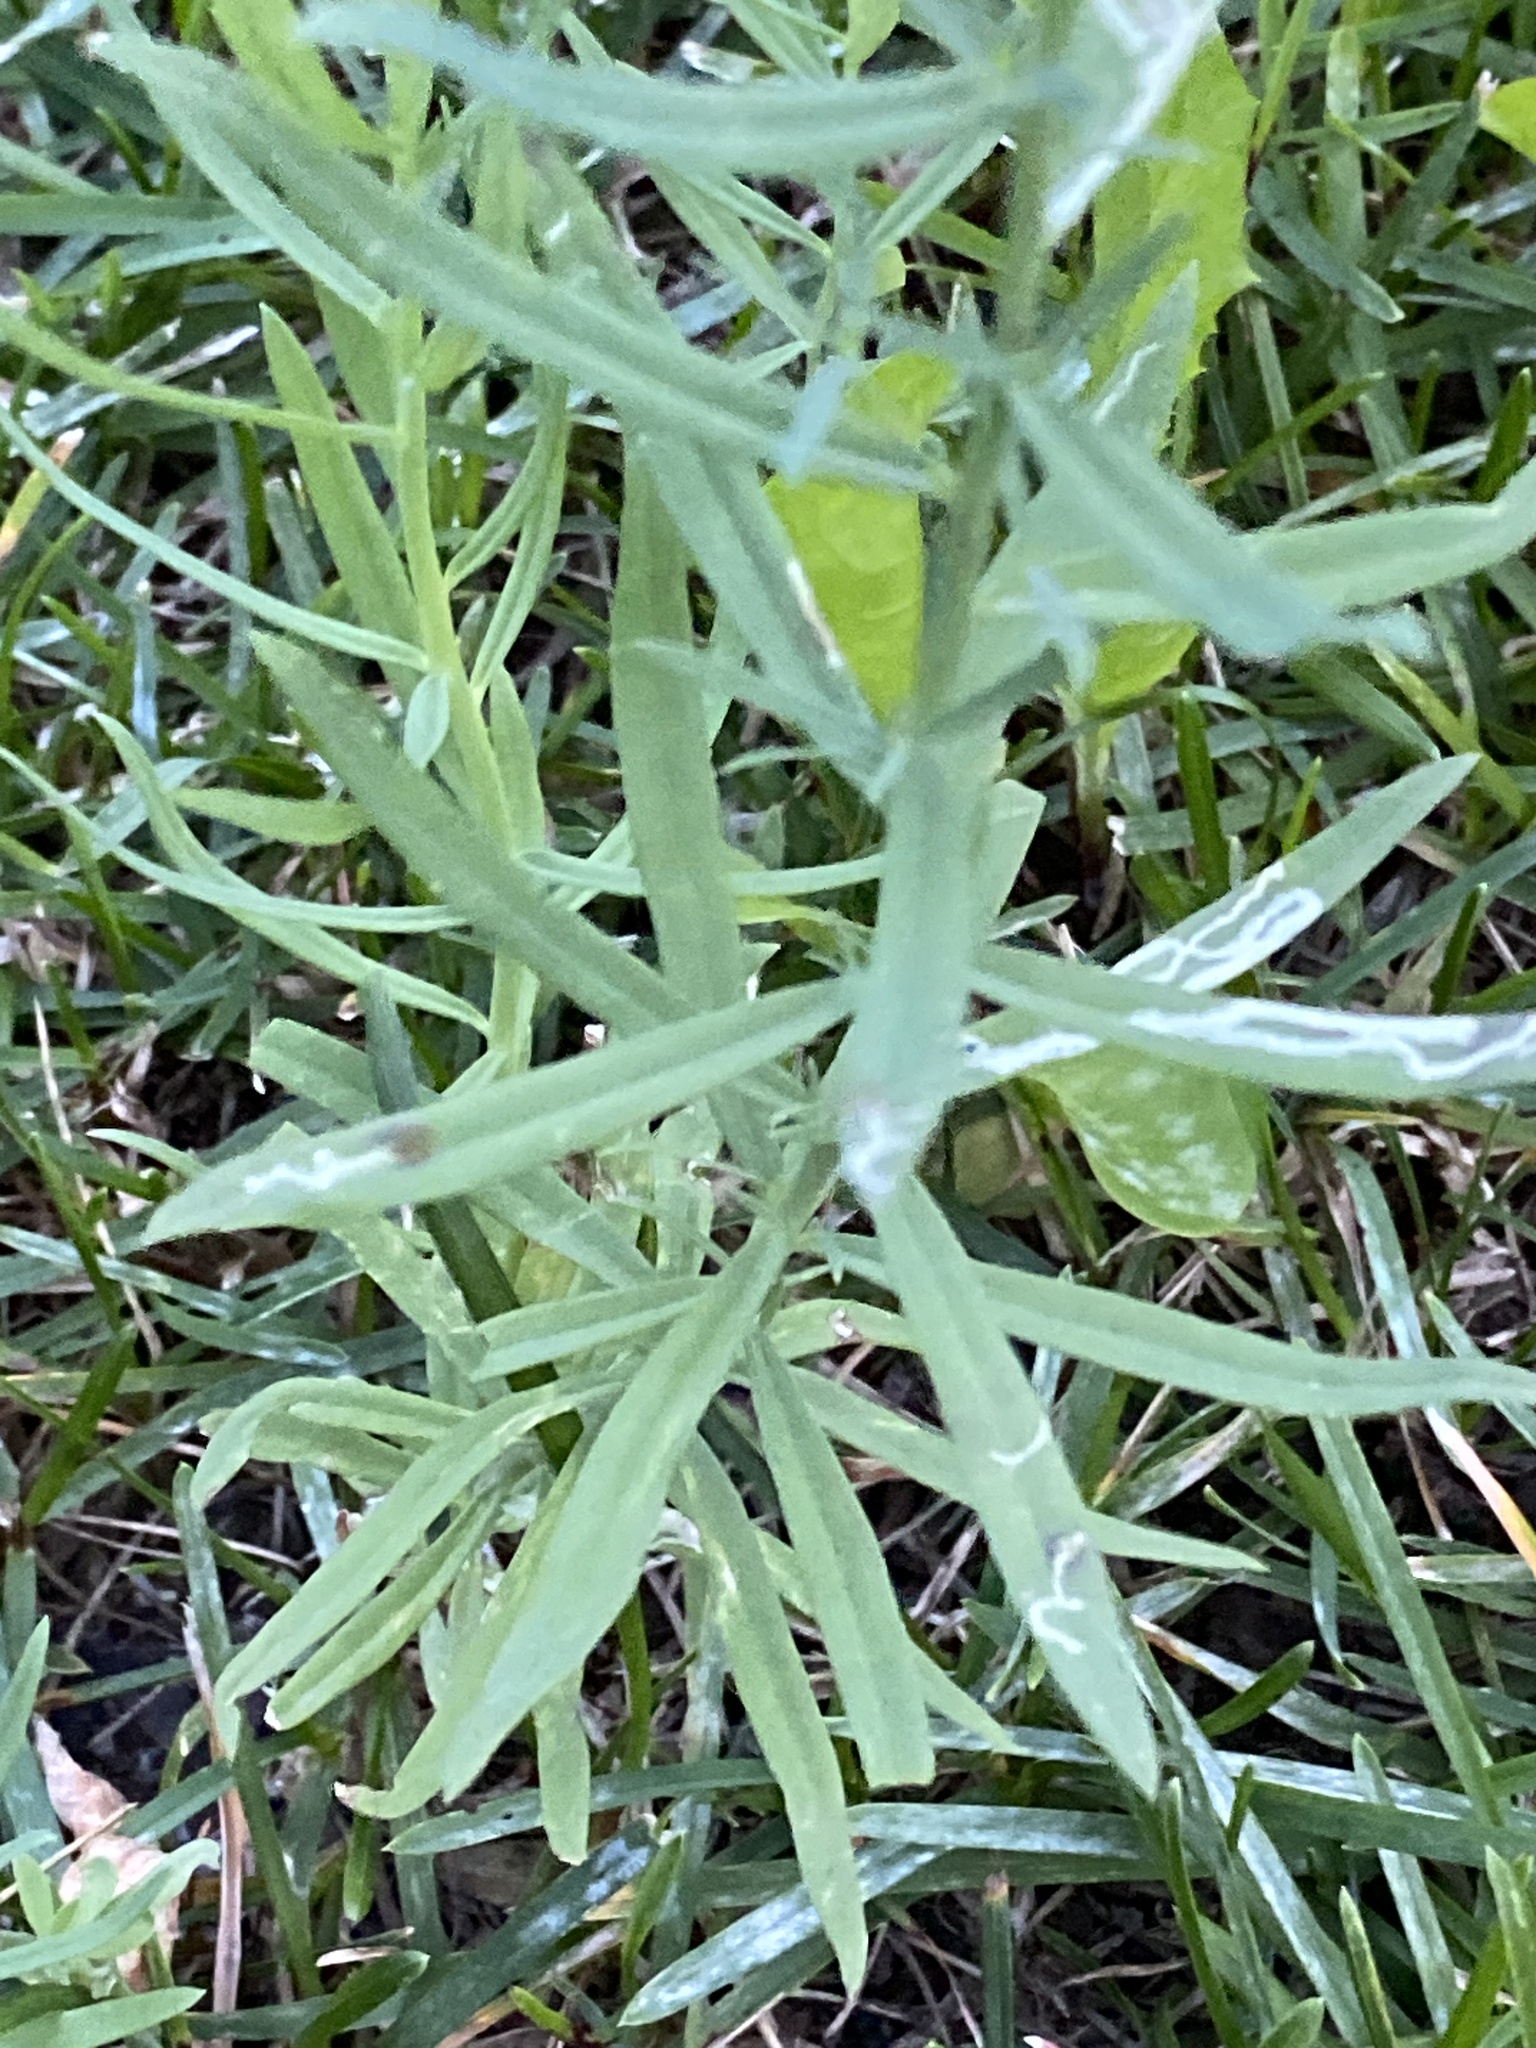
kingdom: Plantae
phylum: Tracheophyta
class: Magnoliopsida
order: Lamiales
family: Plantaginaceae
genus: Linaria
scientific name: Linaria vulgaris
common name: Butter and eggs
